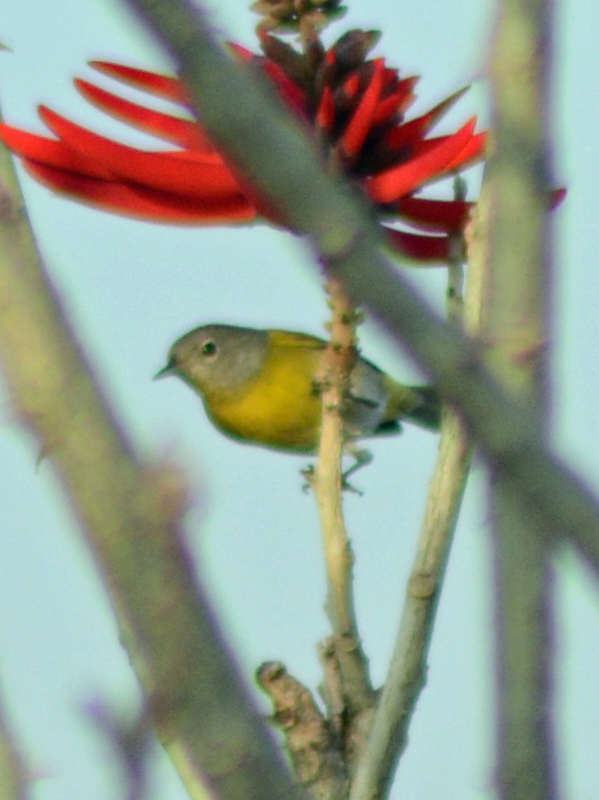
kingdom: Animalia
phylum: Chordata
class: Aves
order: Passeriformes
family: Parulidae
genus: Leiothlypis
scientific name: Leiothlypis ruficapilla
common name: Nashville warbler
